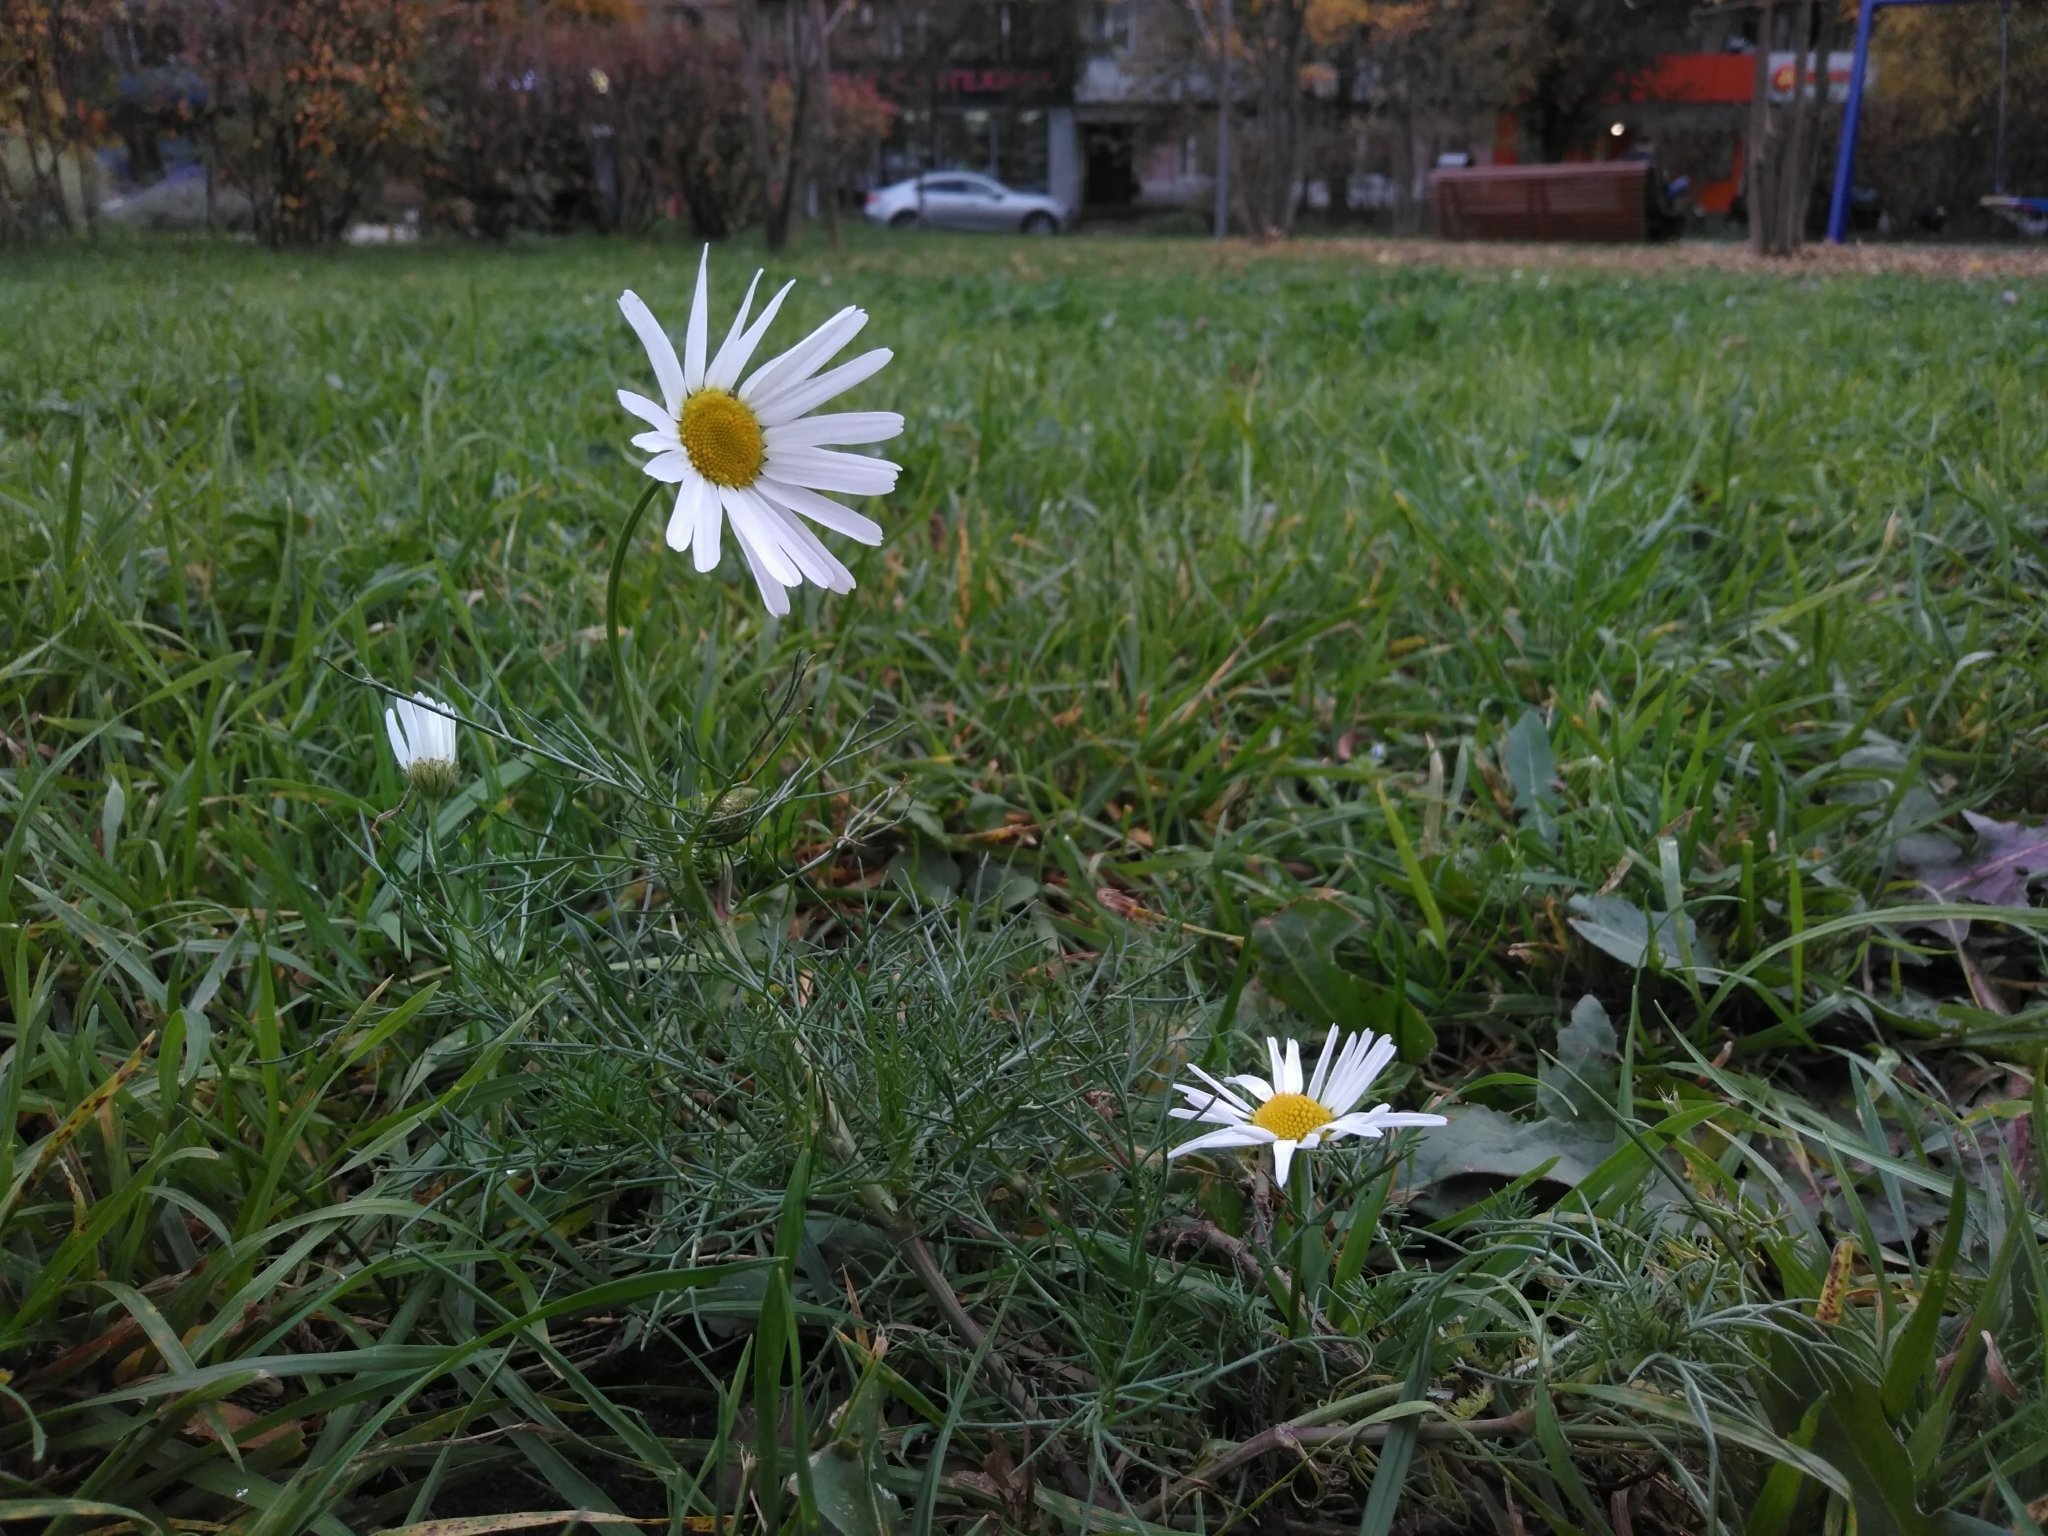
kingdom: Plantae
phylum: Tracheophyta
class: Magnoliopsida
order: Asterales
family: Asteraceae
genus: Tripleurospermum
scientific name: Tripleurospermum inodorum
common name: Scentless mayweed
